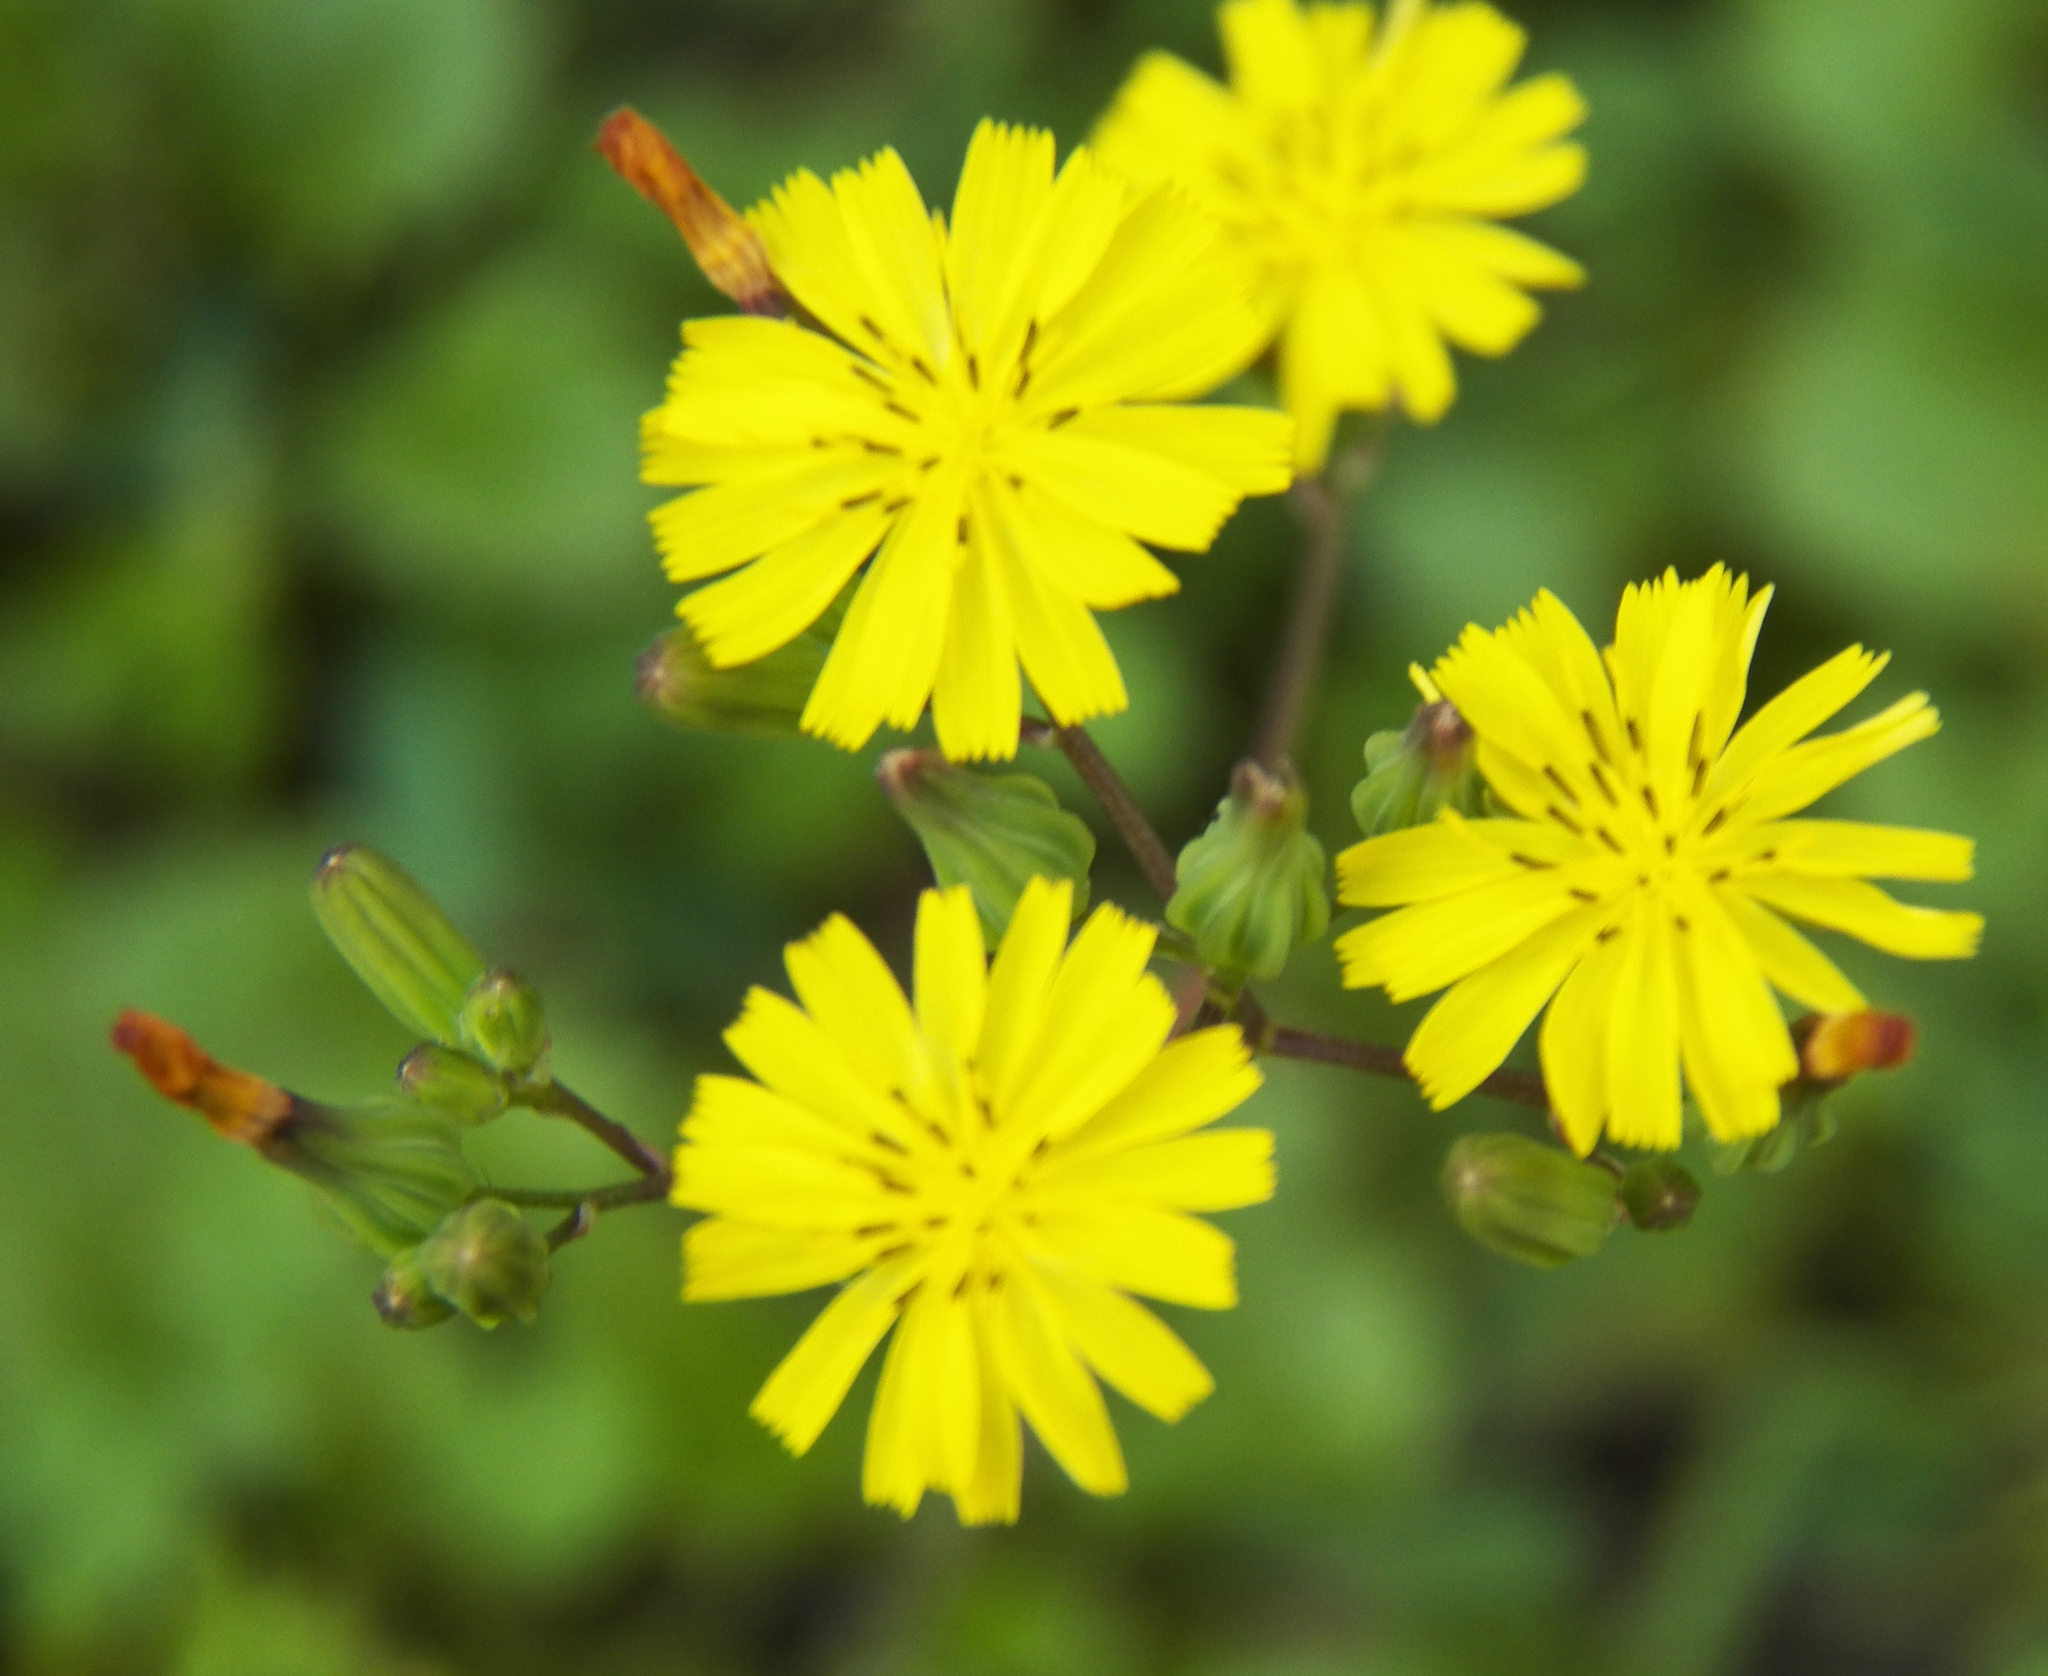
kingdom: Plantae
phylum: Tracheophyta
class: Magnoliopsida
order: Asterales
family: Asteraceae
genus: Youngia
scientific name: Youngia japonica
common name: Oriental false hawksbeard
